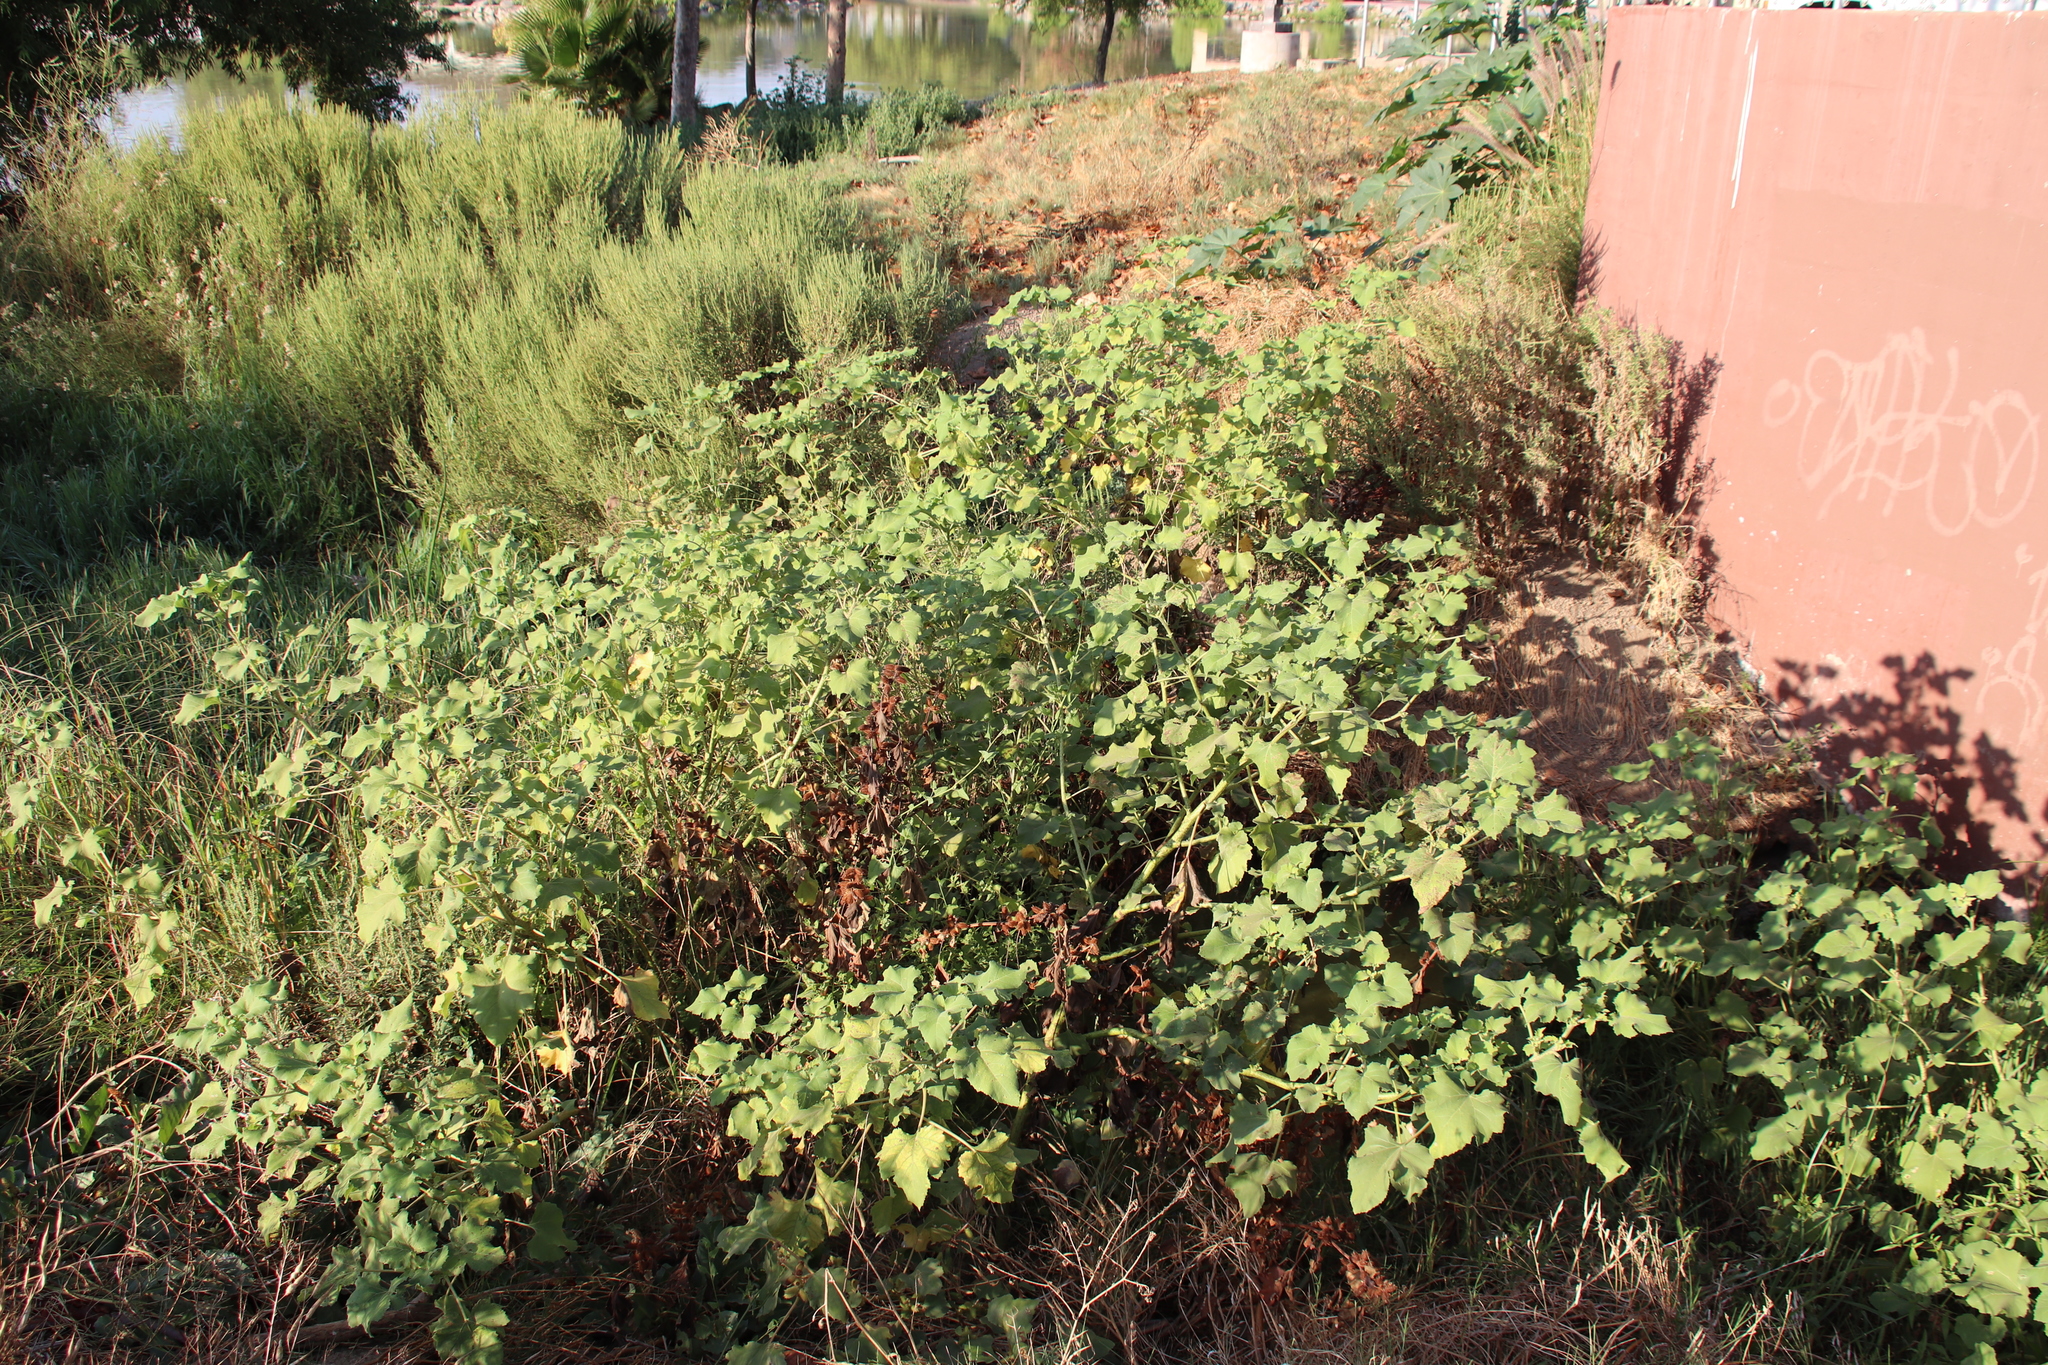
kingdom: Plantae
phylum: Tracheophyta
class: Magnoliopsida
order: Asterales
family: Asteraceae
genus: Xanthium
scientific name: Xanthium strumarium
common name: Rough cocklebur
